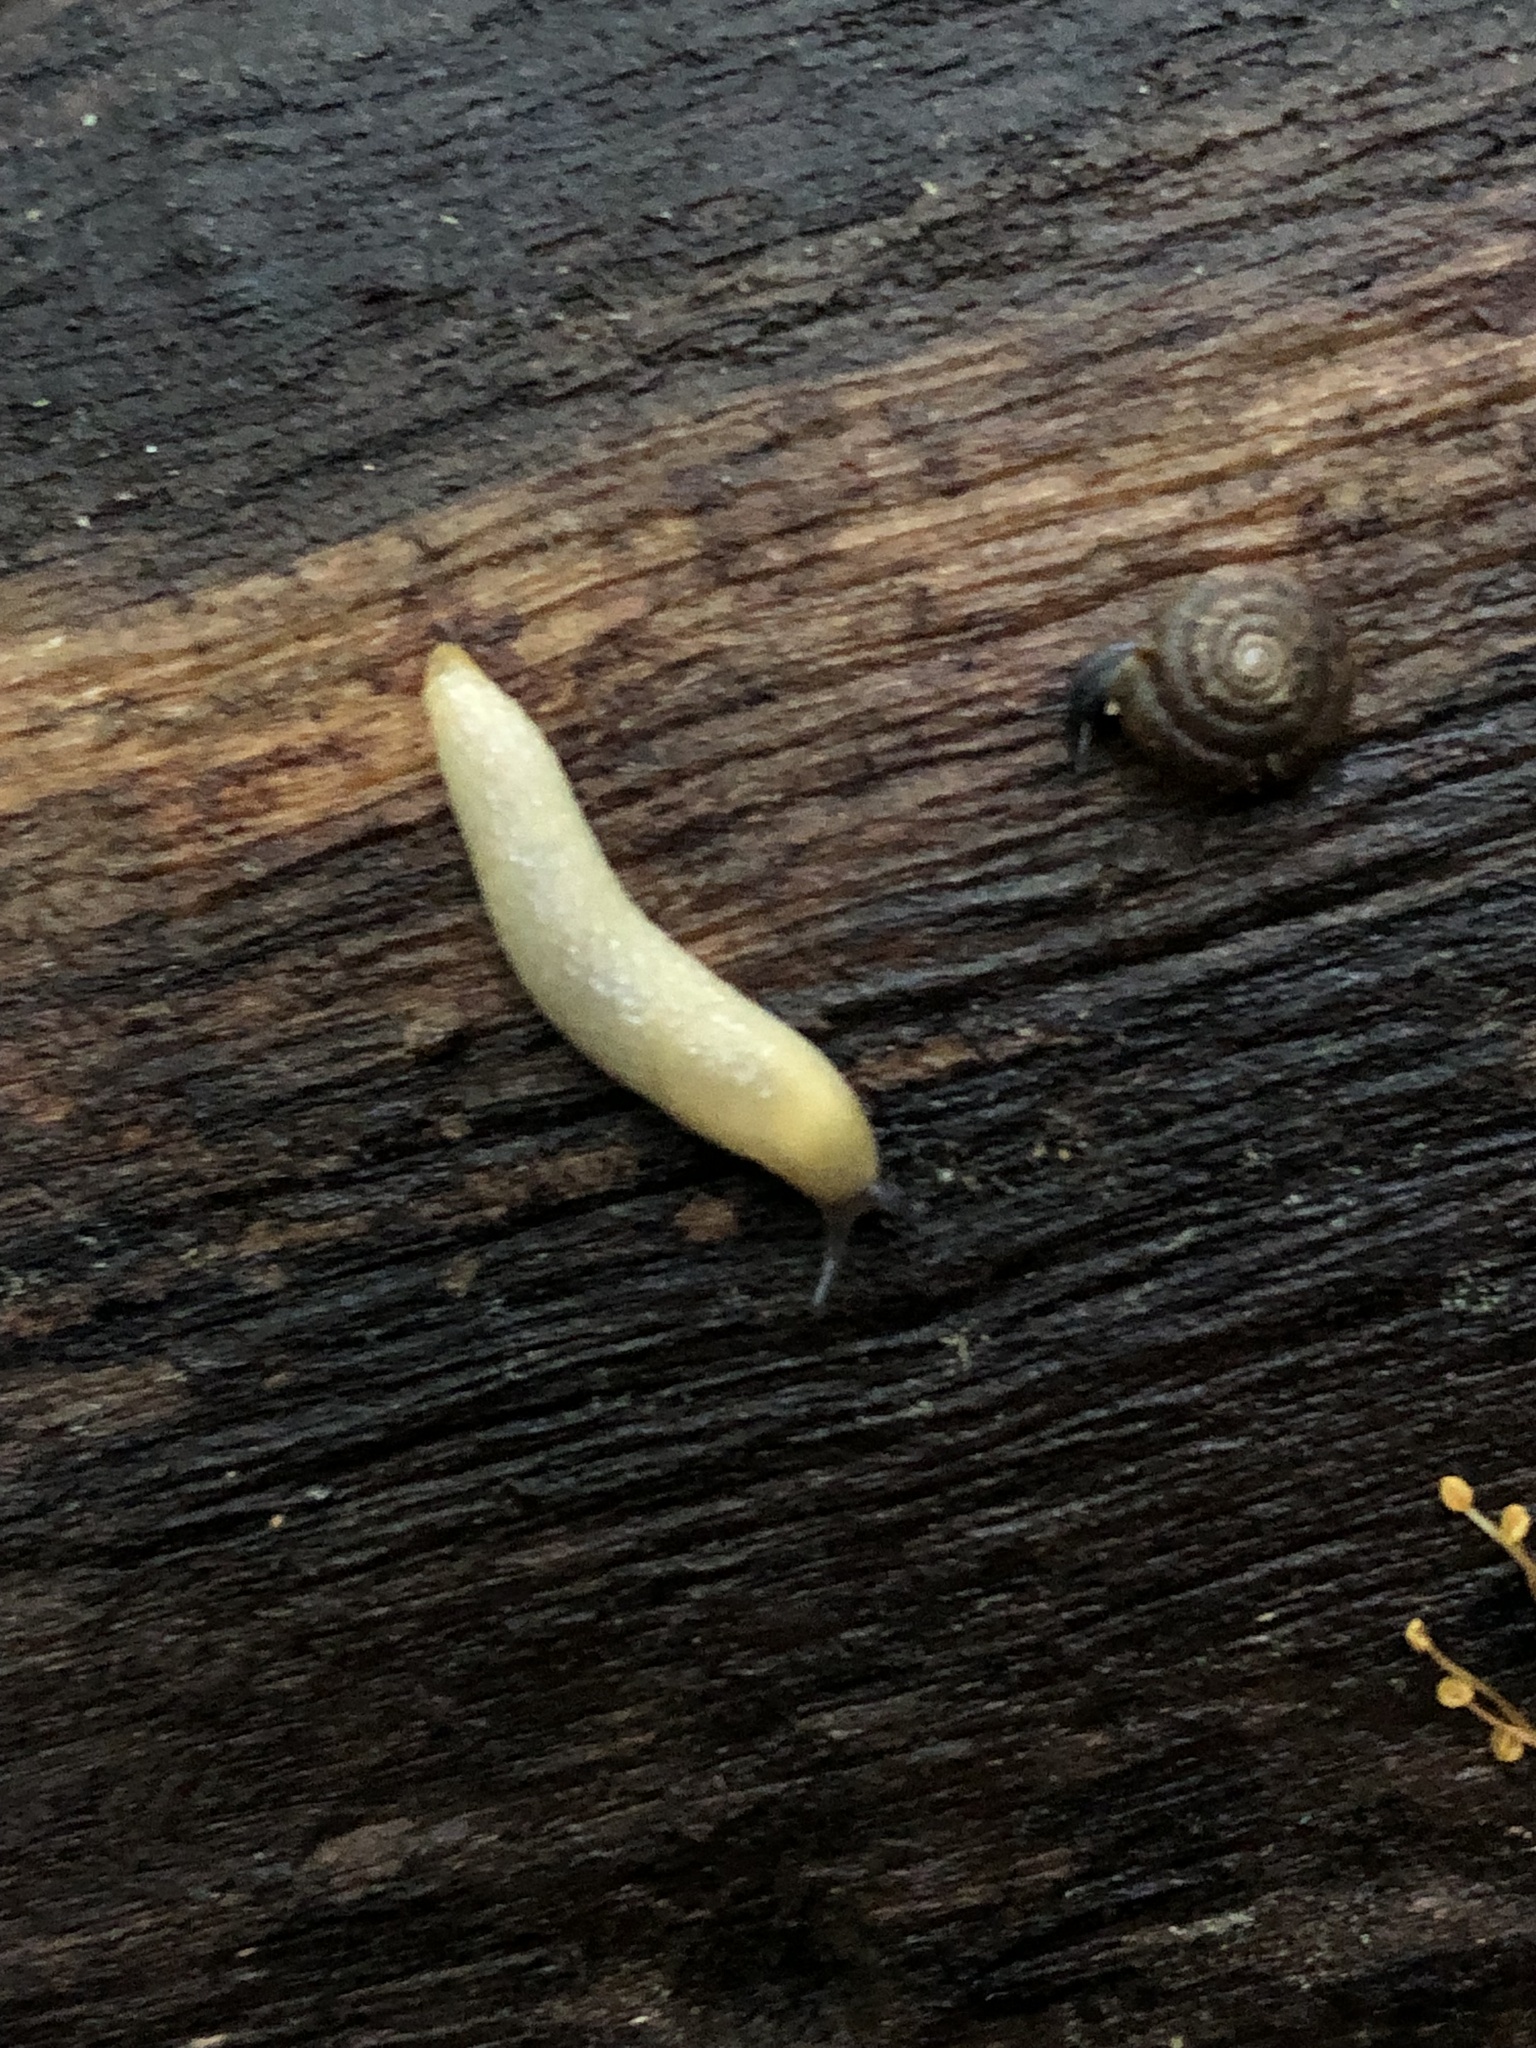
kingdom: Animalia
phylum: Mollusca
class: Gastropoda
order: Stylommatophora
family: Arionidae
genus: Arion
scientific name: Arion intermedius
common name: Hedgehog slug
